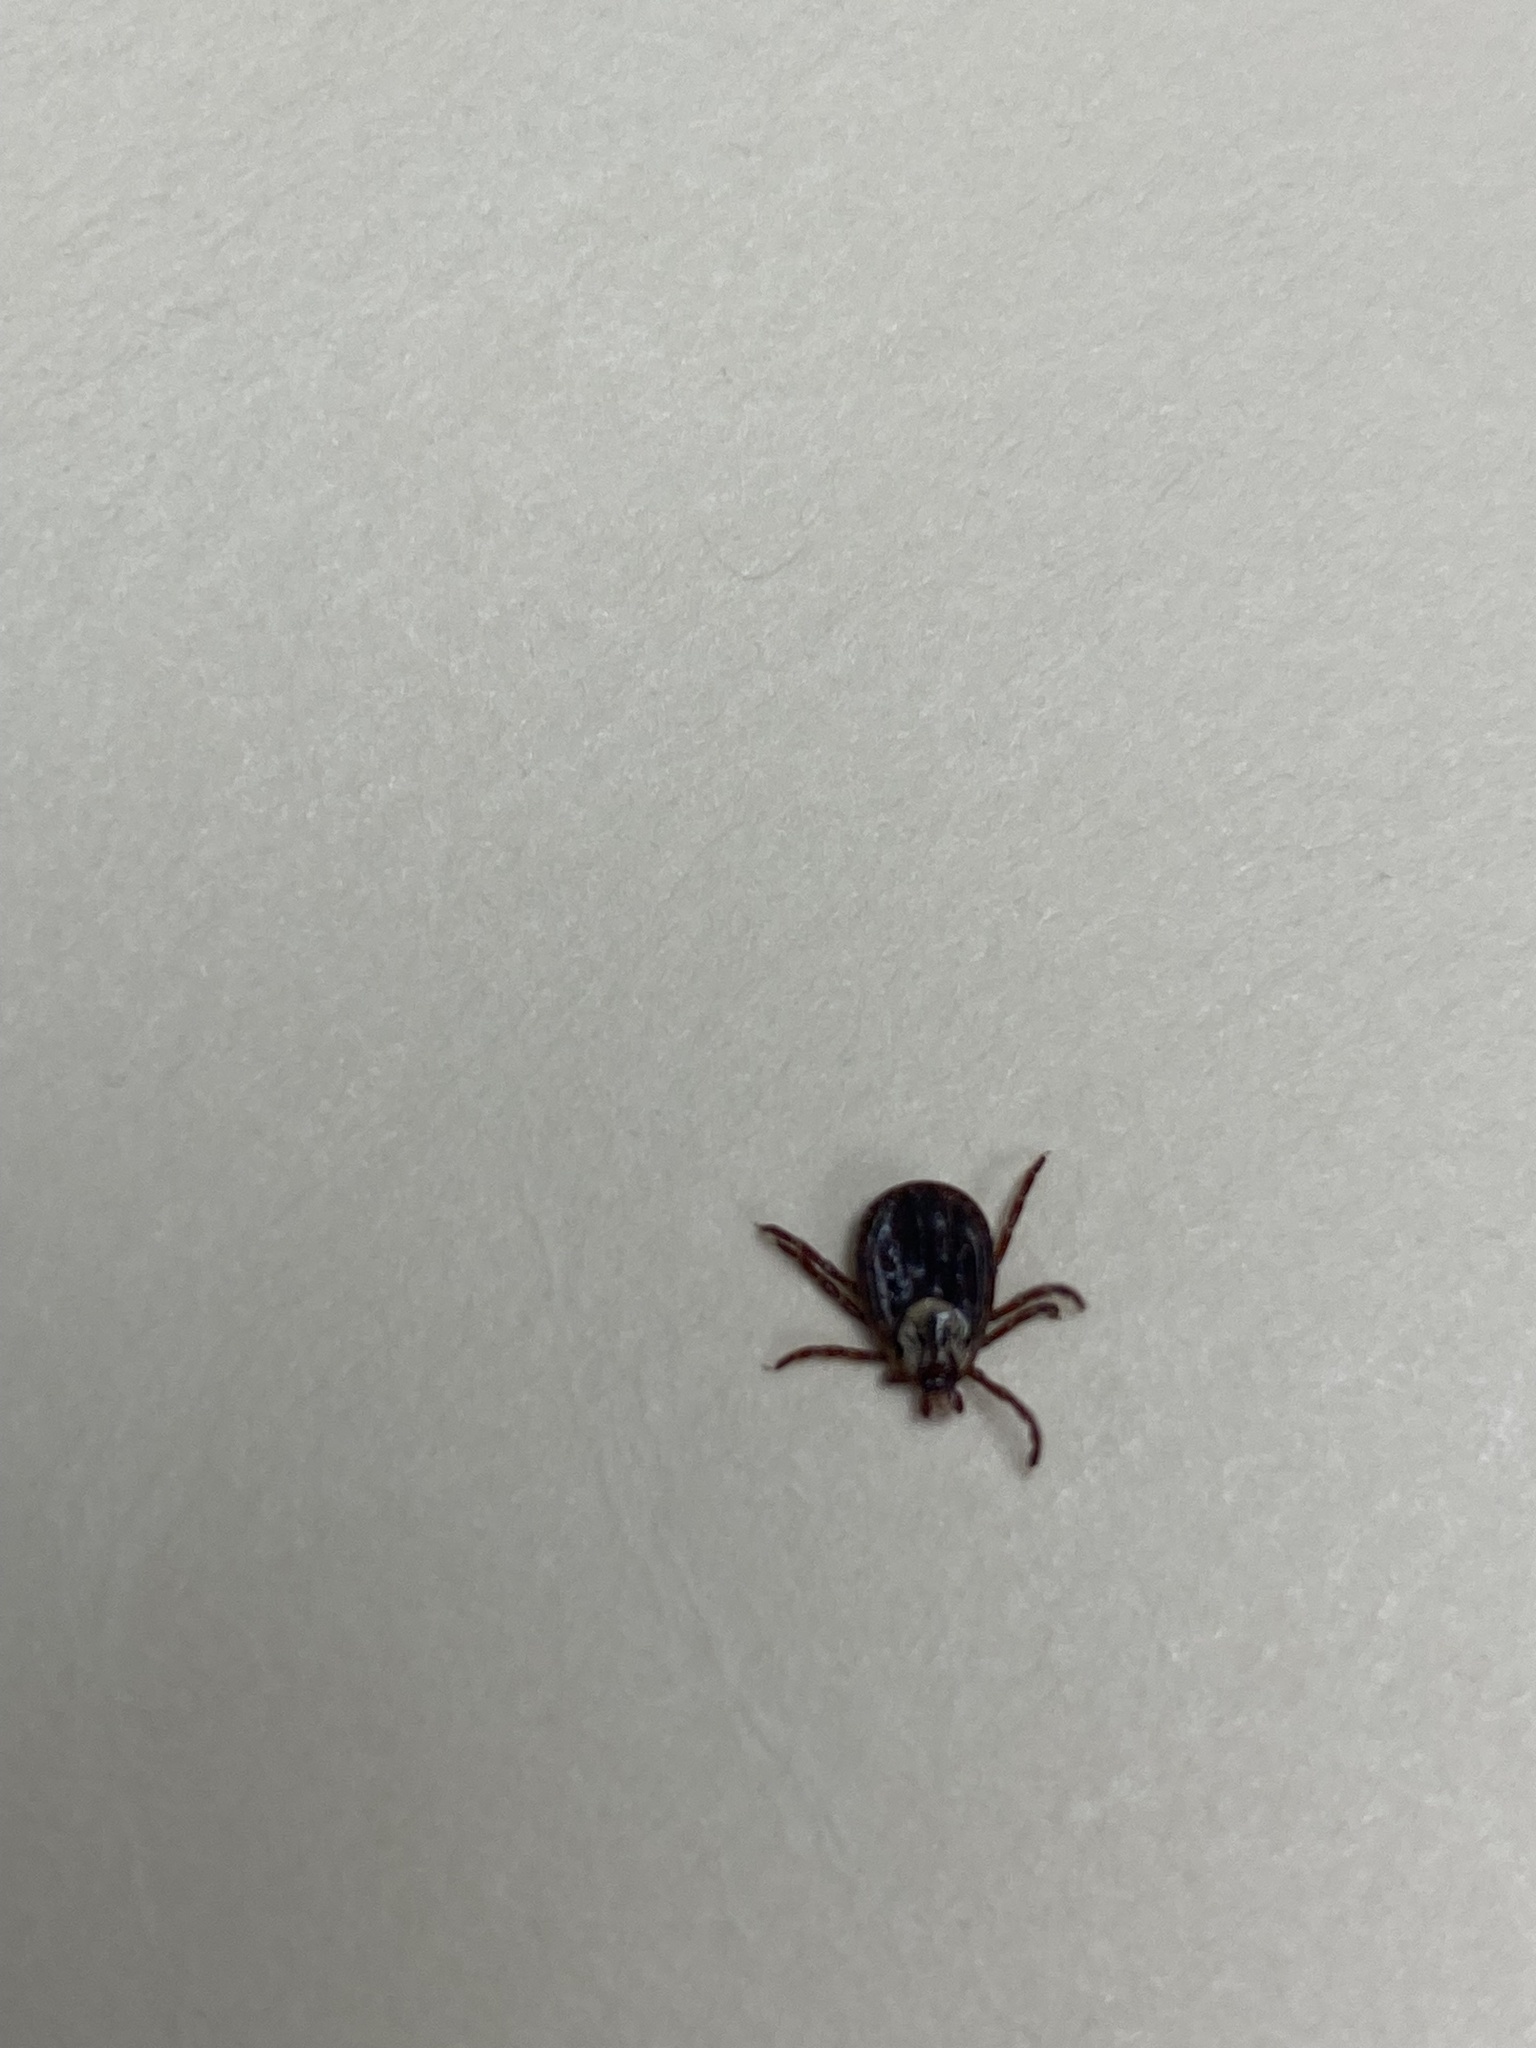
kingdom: Animalia
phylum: Arthropoda
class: Arachnida
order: Ixodida
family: Ixodidae
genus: Dermacentor
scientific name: Dermacentor variabilis
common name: American dog tick
